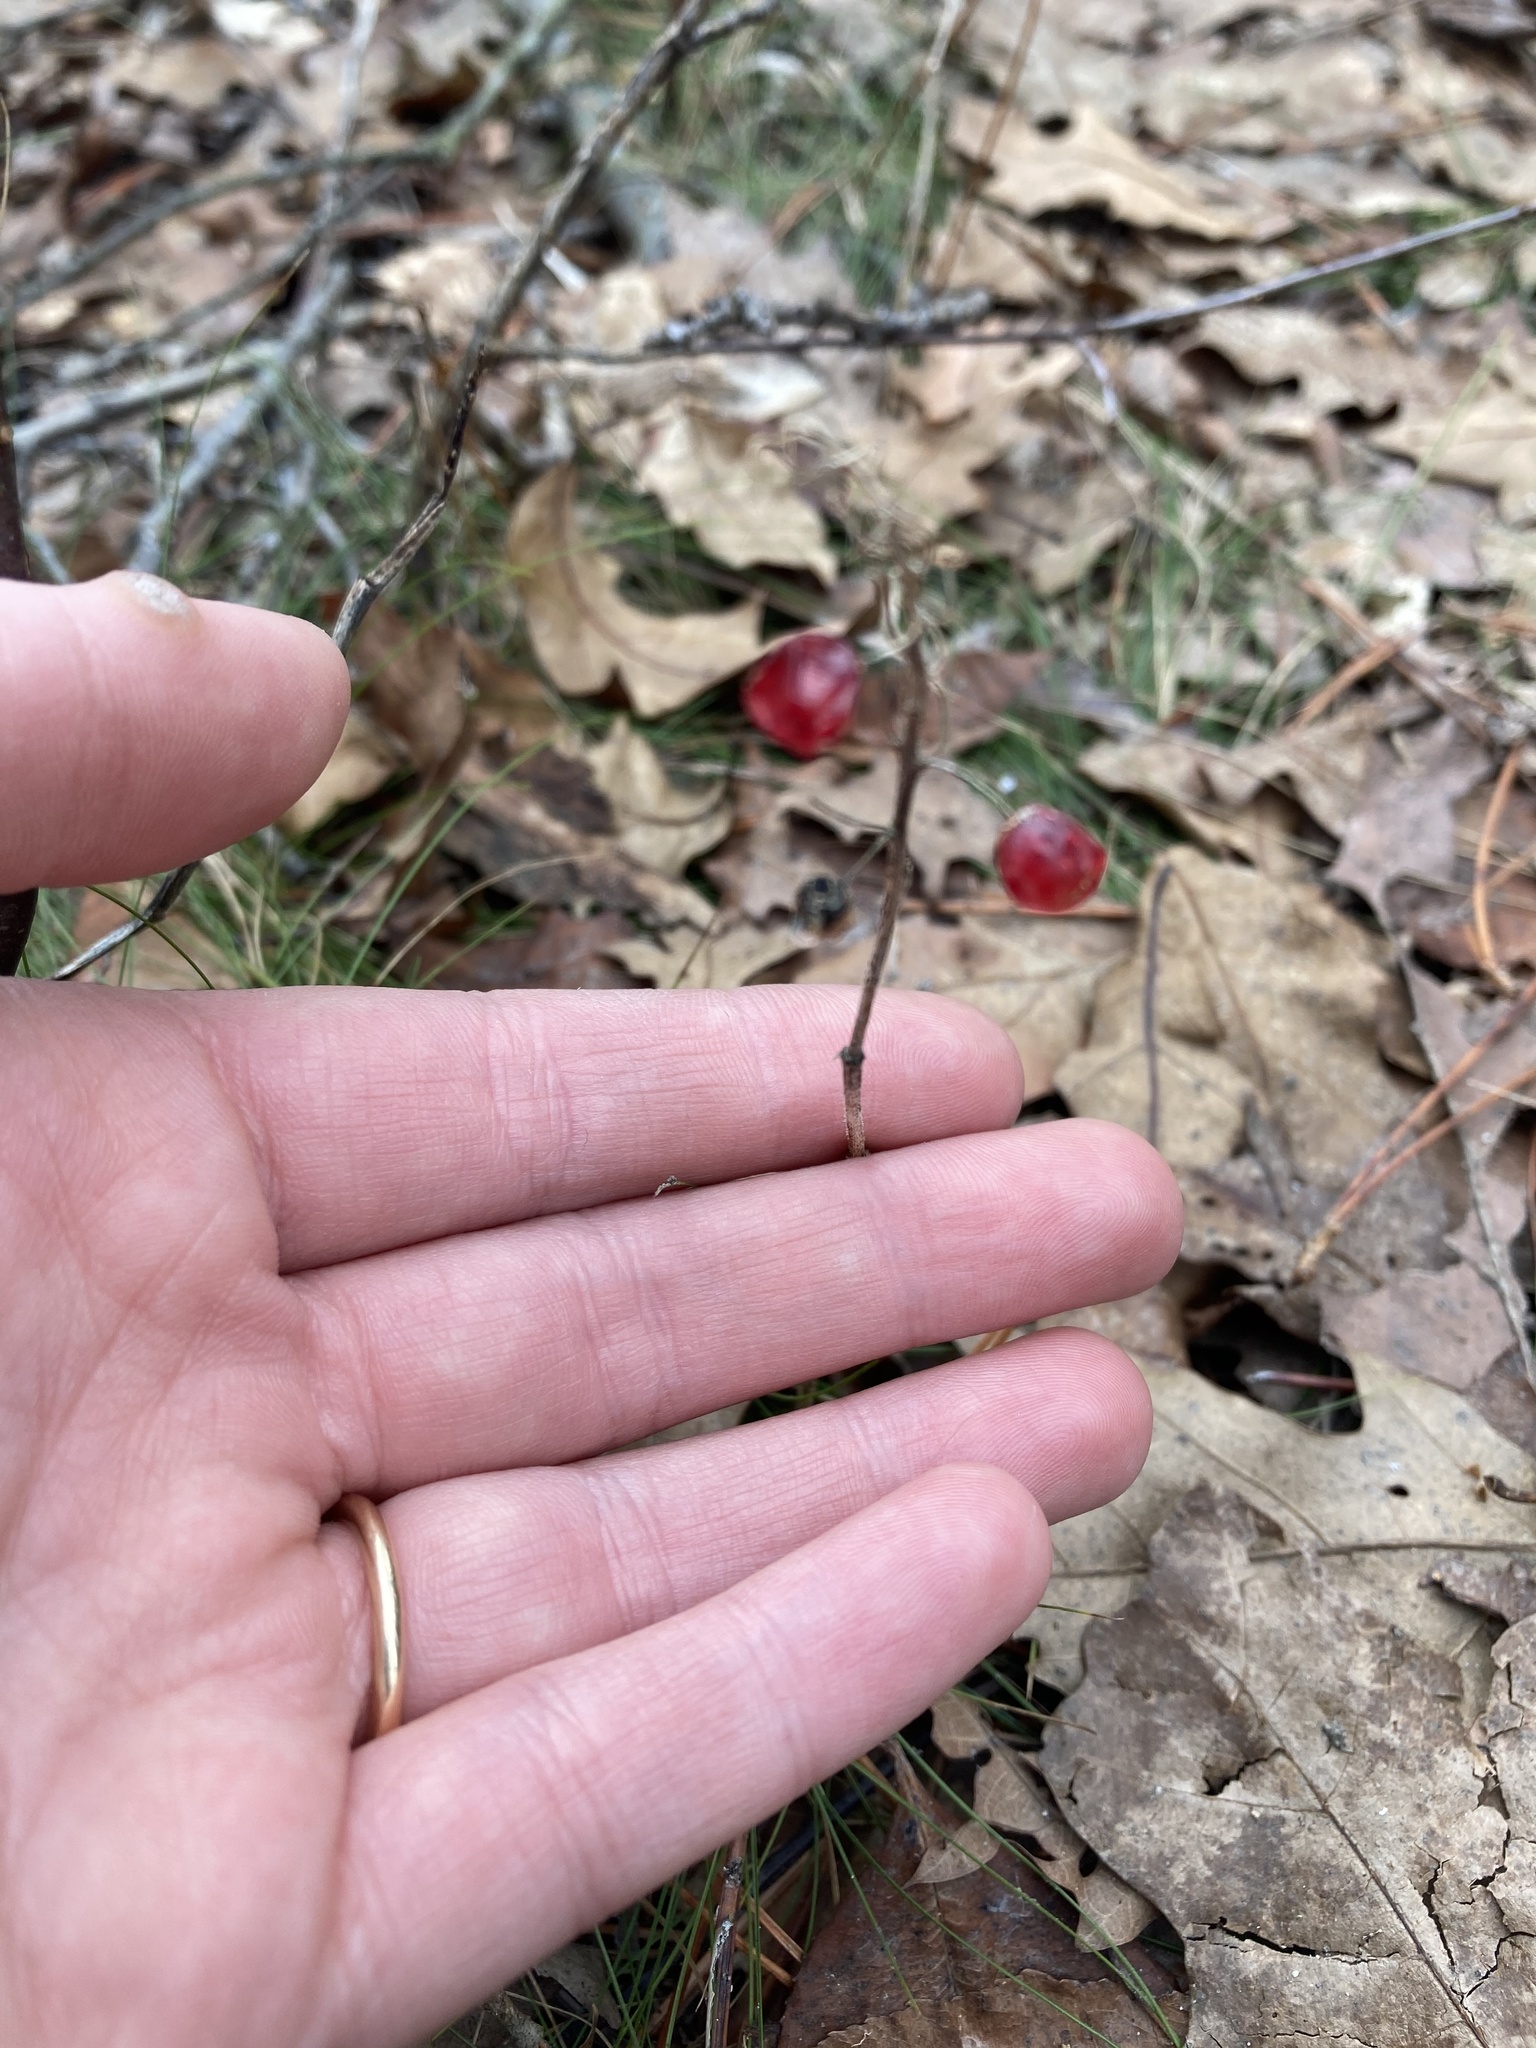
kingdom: Plantae
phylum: Tracheophyta
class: Liliopsida
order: Asparagales
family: Asparagaceae
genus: Maianthemum
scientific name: Maianthemum canadense
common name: False lily-of-the-valley
